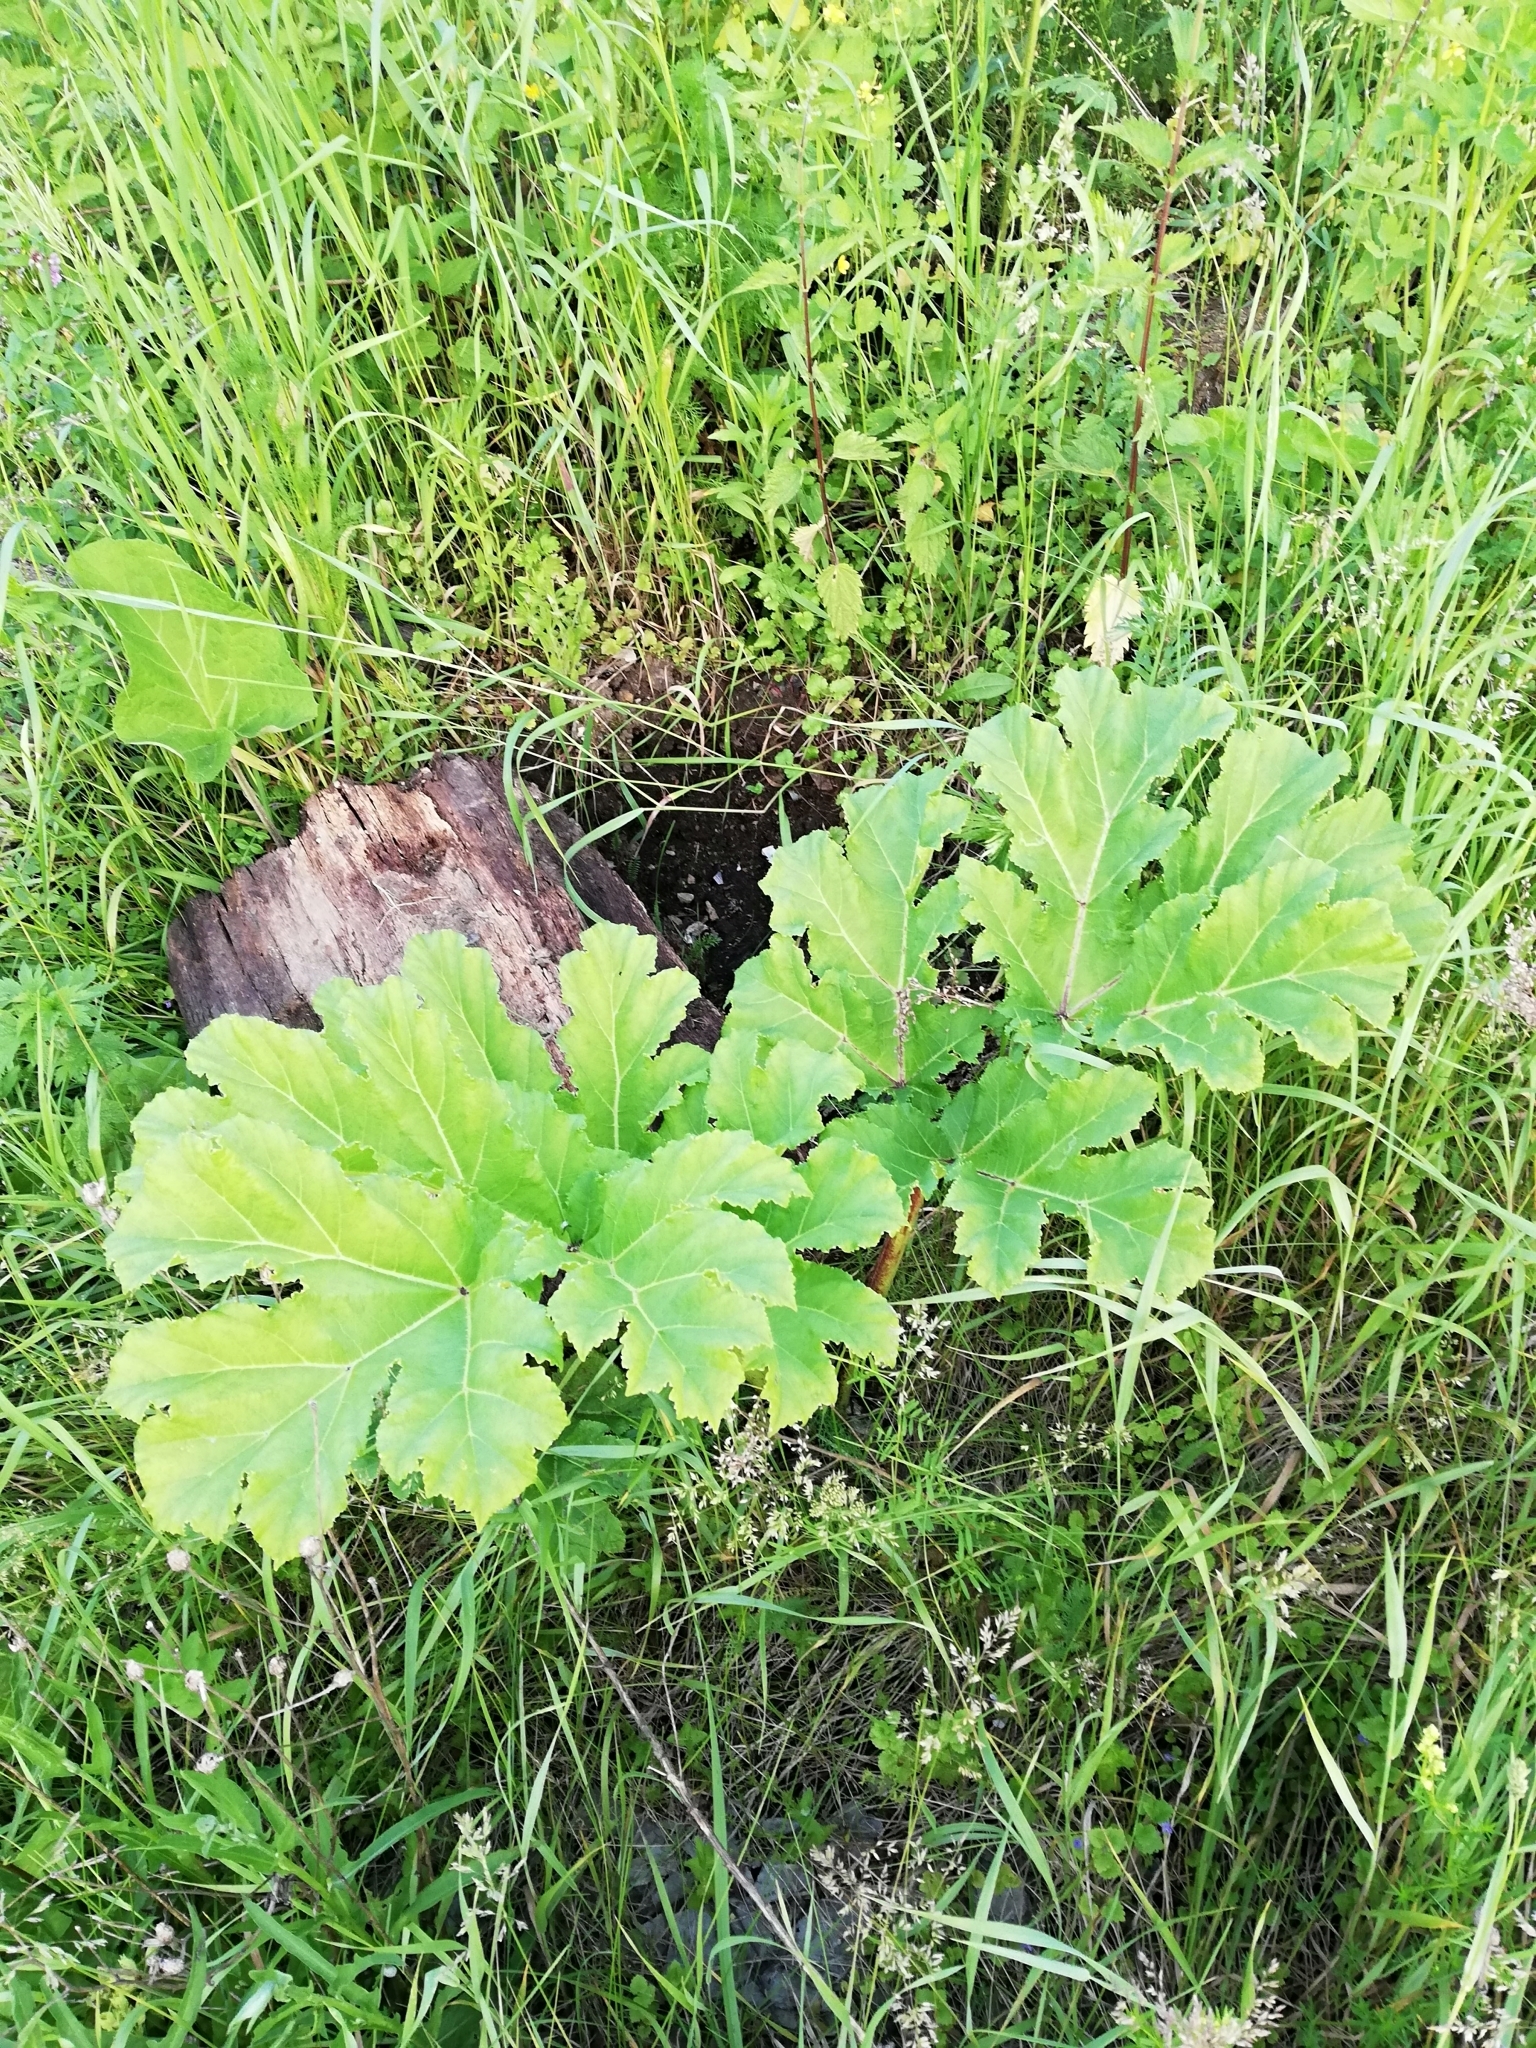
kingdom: Plantae
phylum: Tracheophyta
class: Magnoliopsida
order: Apiales
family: Apiaceae
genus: Heracleum
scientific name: Heracleum sosnowskyi
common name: Sosnowsky's hogweed
